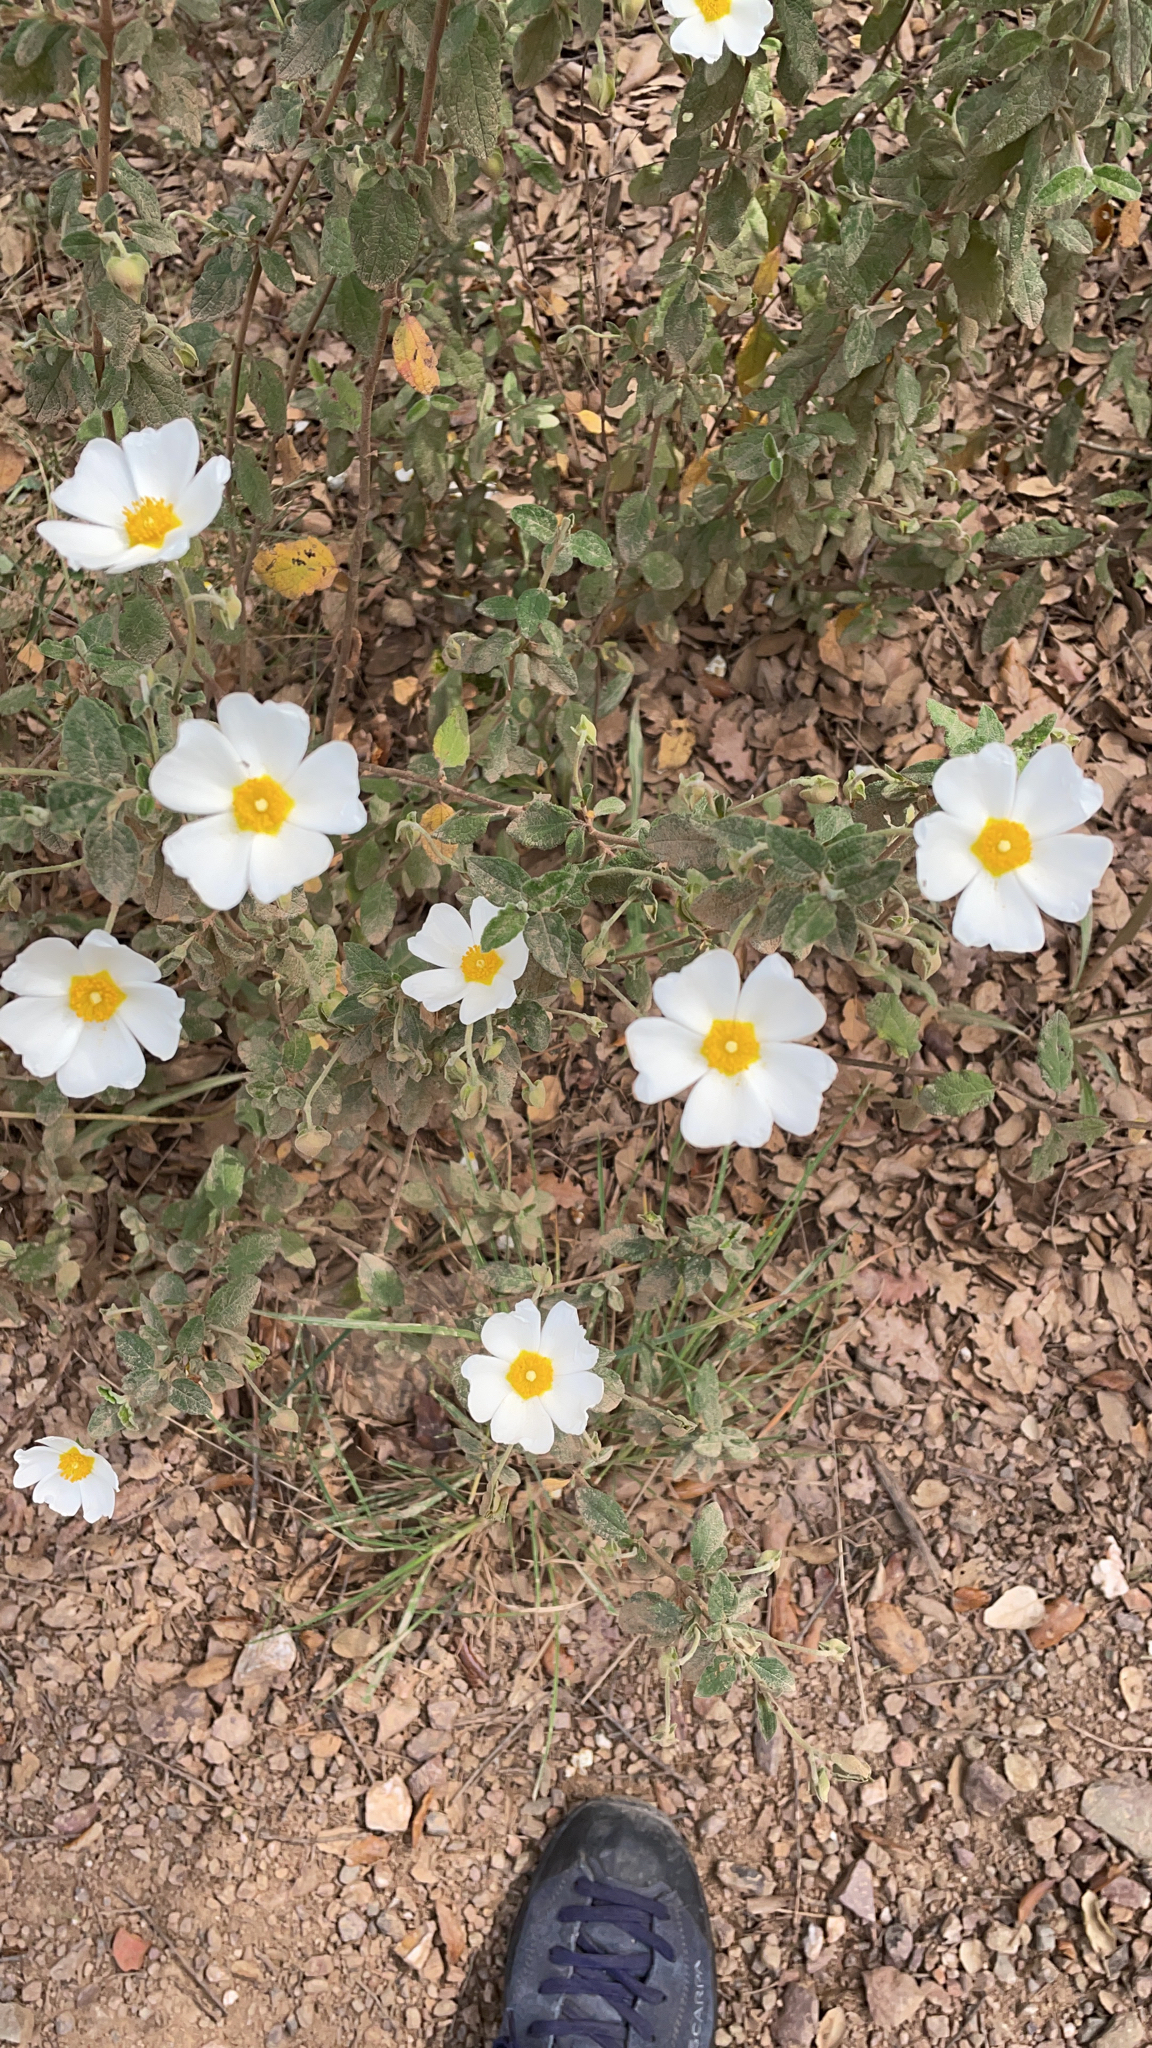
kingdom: Plantae
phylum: Tracheophyta
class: Magnoliopsida
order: Malvales
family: Cistaceae
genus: Cistus
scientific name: Cistus salviifolius
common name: Salvia cistus
